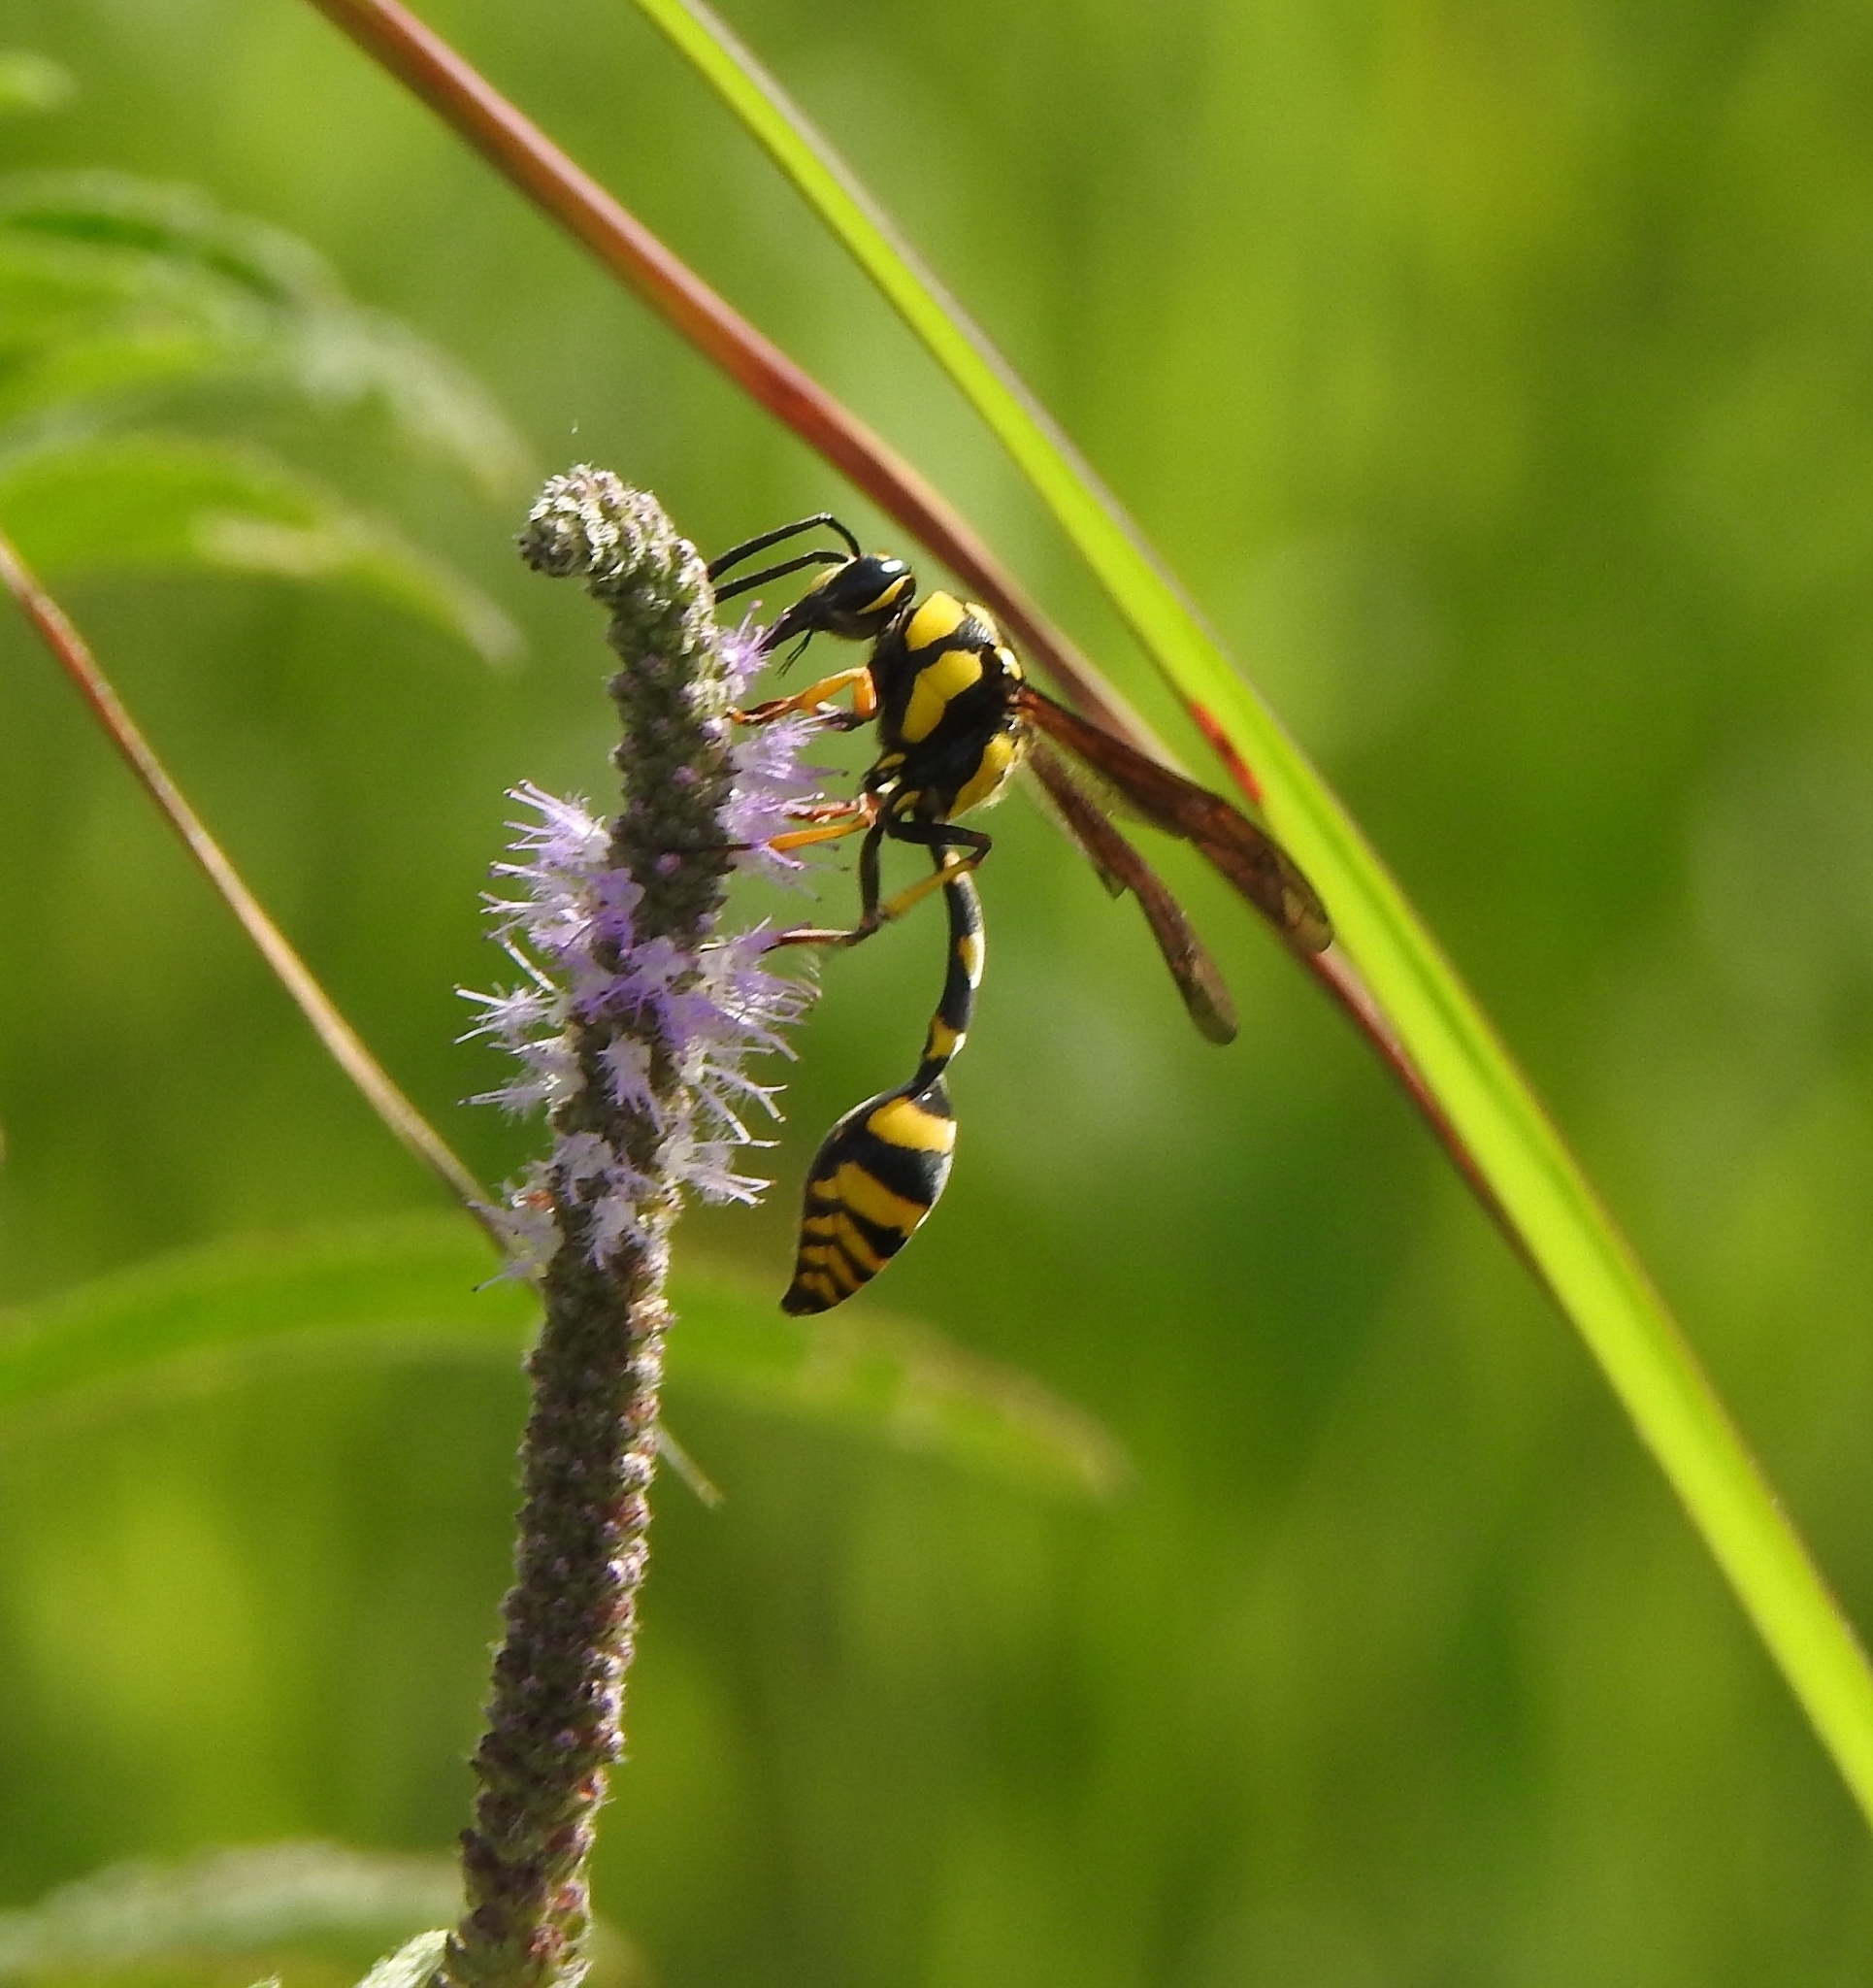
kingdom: Animalia
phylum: Arthropoda
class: Insecta
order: Hymenoptera
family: Eumenidae
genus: Phimenes
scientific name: Phimenes flavopictus
